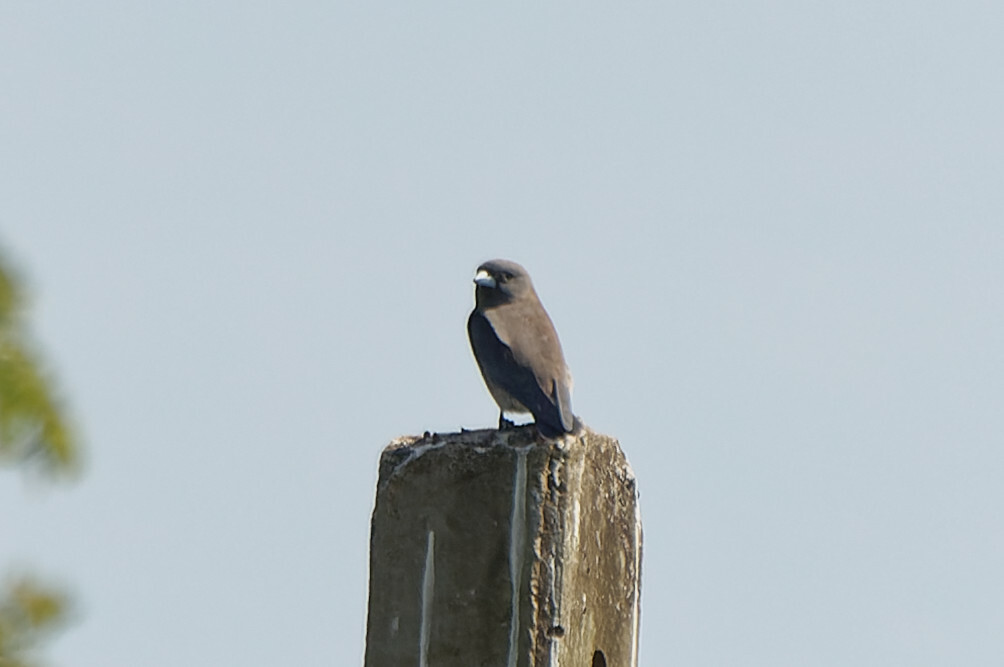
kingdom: Animalia
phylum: Chordata
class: Aves
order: Passeriformes
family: Artamidae
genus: Artamus
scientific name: Artamus fuscus
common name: Ashy woodswallow
